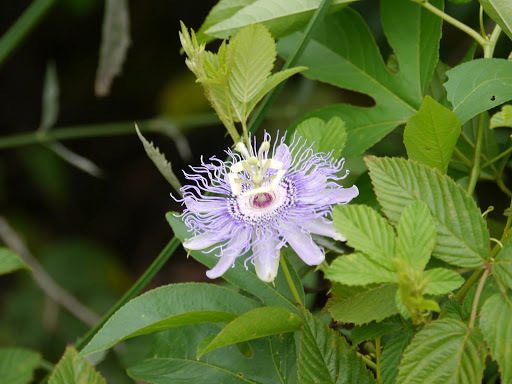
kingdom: Plantae
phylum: Tracheophyta
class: Magnoliopsida
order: Malpighiales
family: Passifloraceae
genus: Passiflora
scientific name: Passiflora incarnata
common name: Apricot-vine
